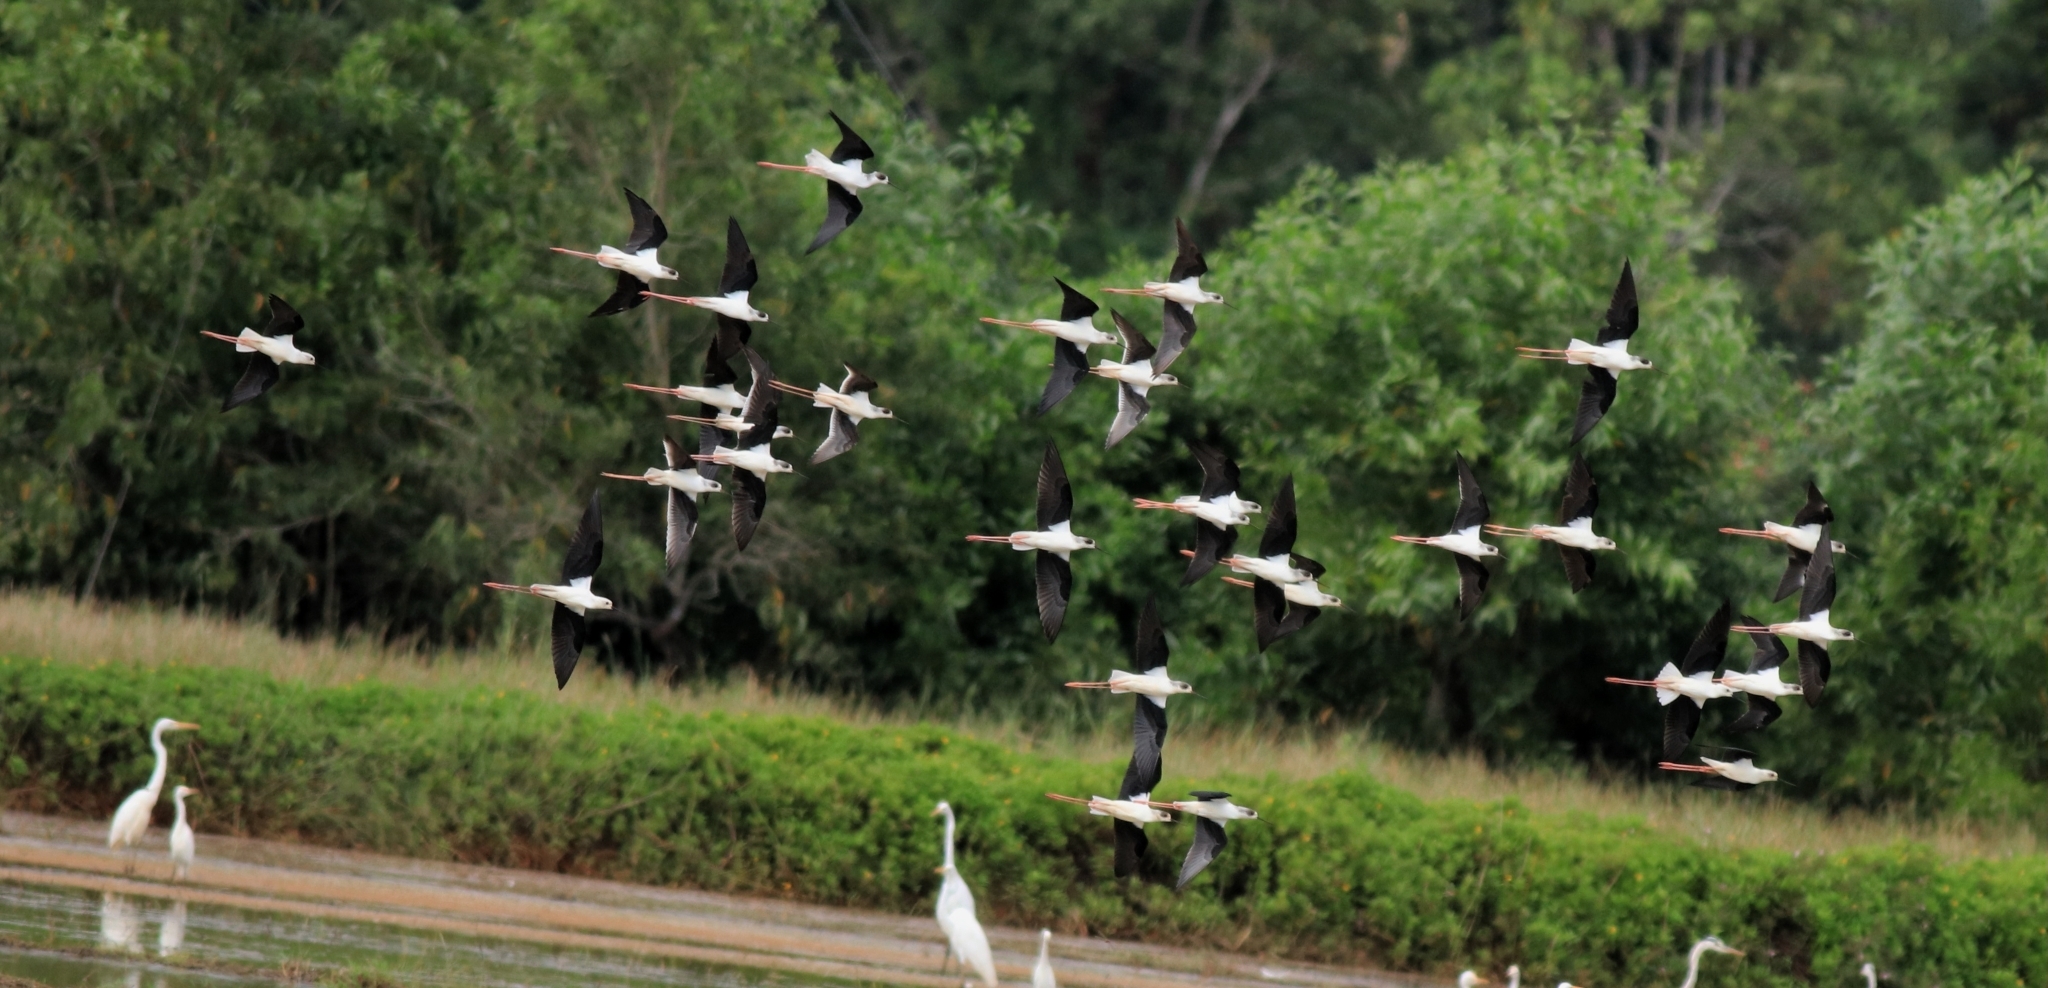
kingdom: Animalia
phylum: Chordata
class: Aves
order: Charadriiformes
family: Recurvirostridae
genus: Himantopus
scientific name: Himantopus himantopus
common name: Black-winged stilt
